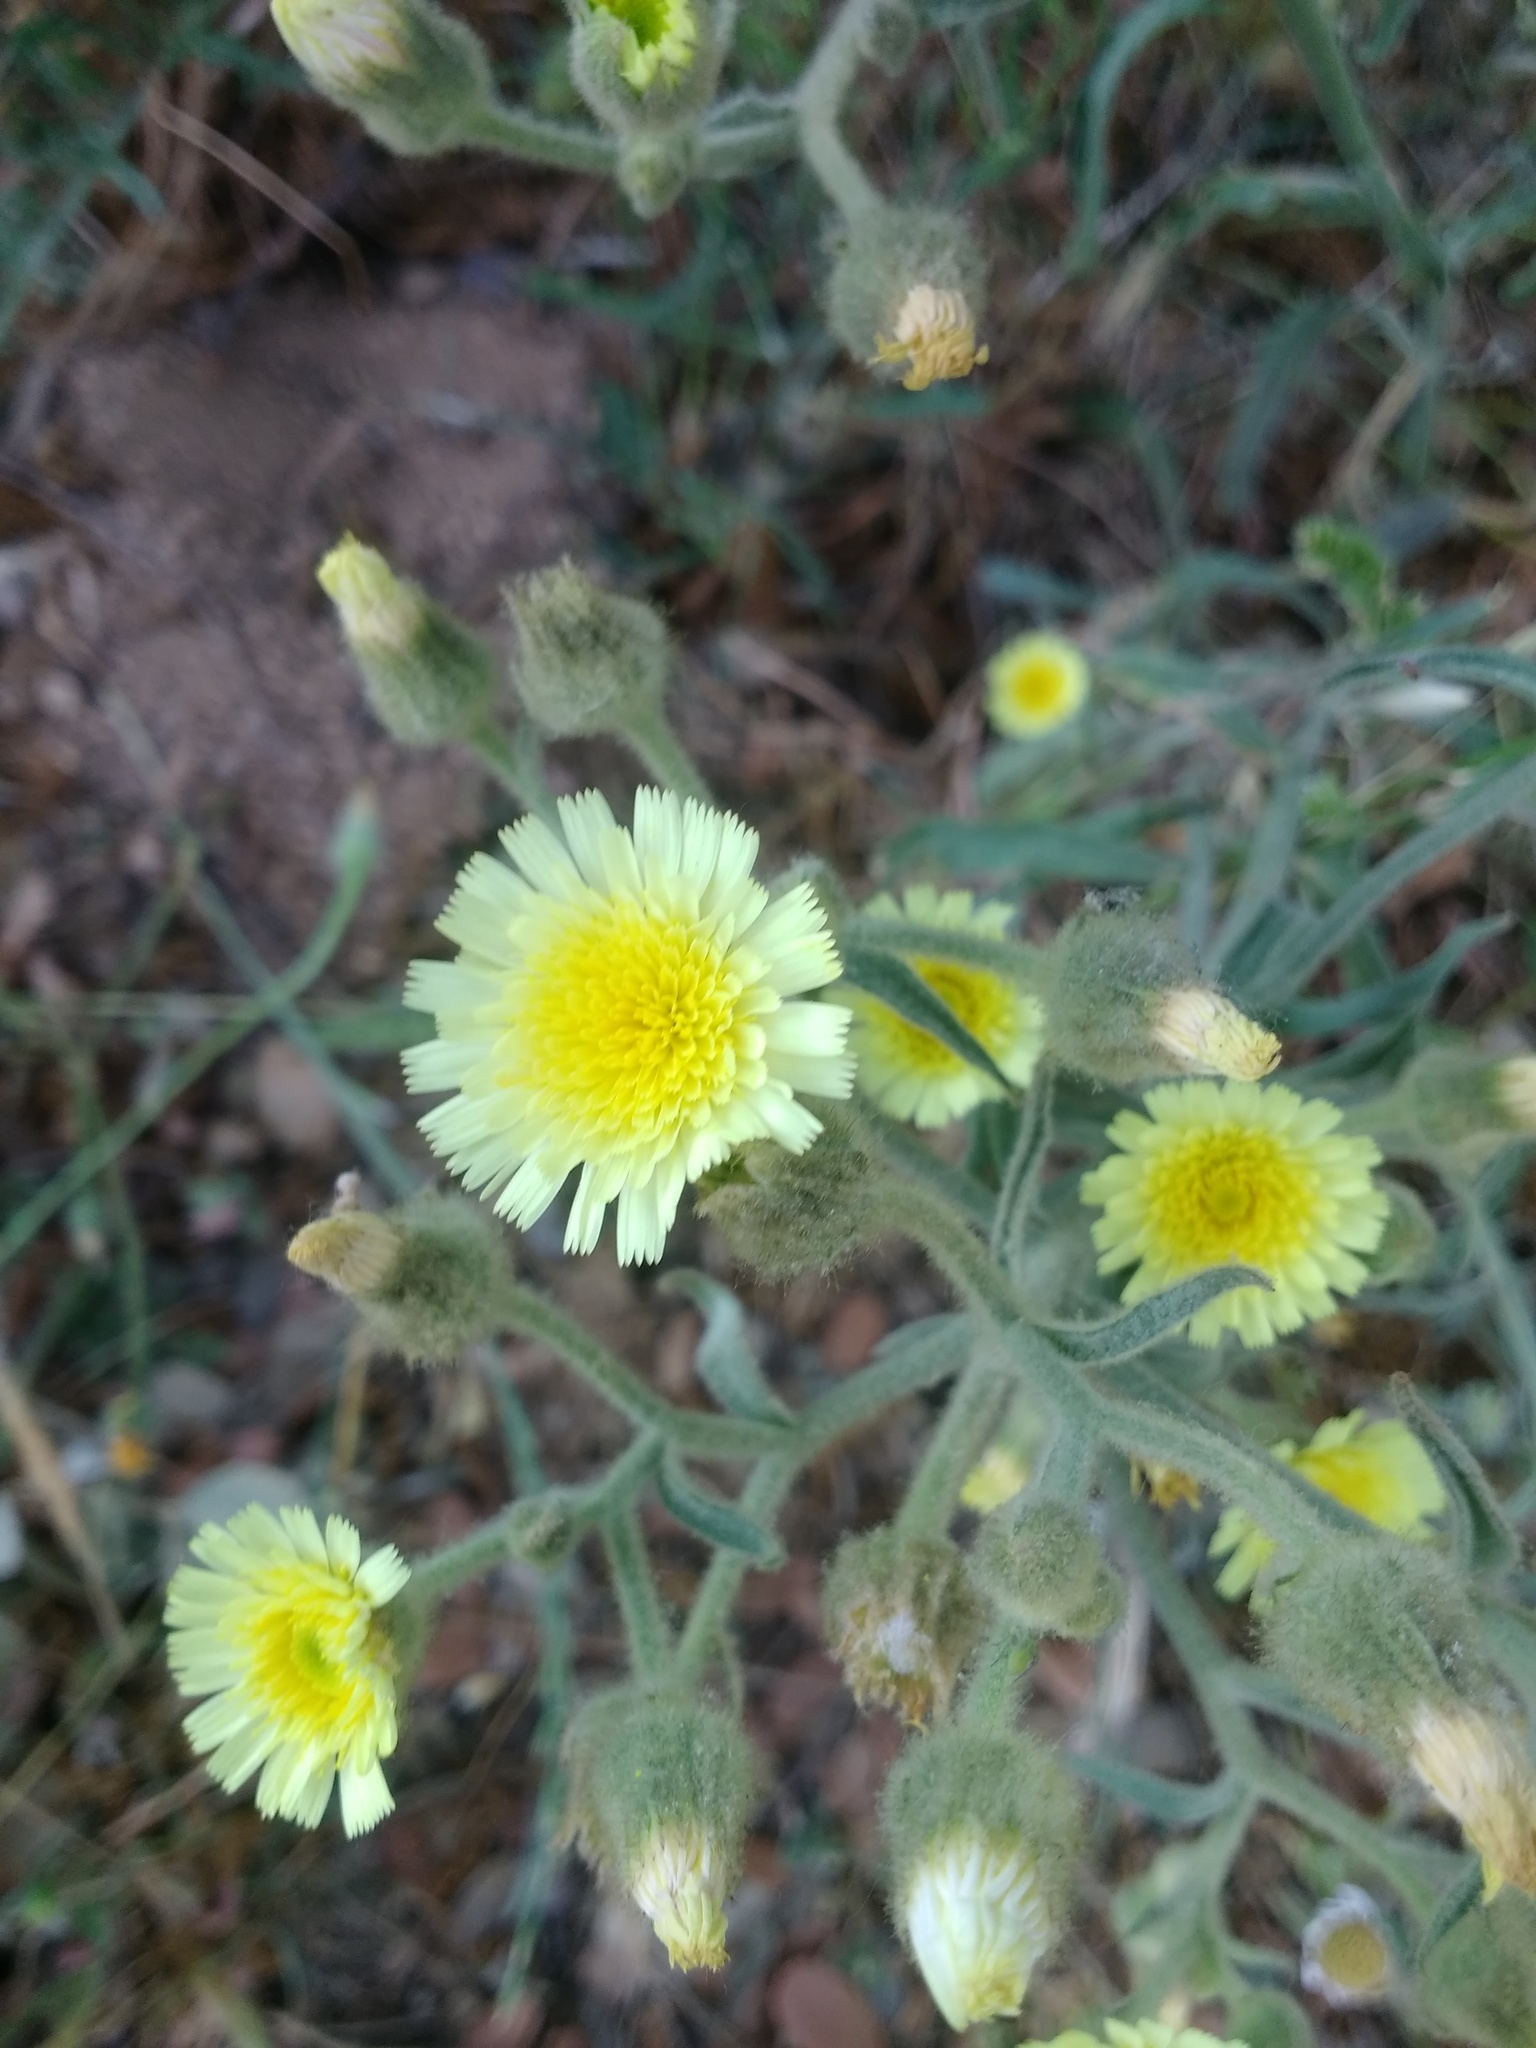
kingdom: Plantae
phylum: Tracheophyta
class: Magnoliopsida
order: Asterales
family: Asteraceae
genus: Andryala
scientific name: Andryala integrifolia
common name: Common andryala
